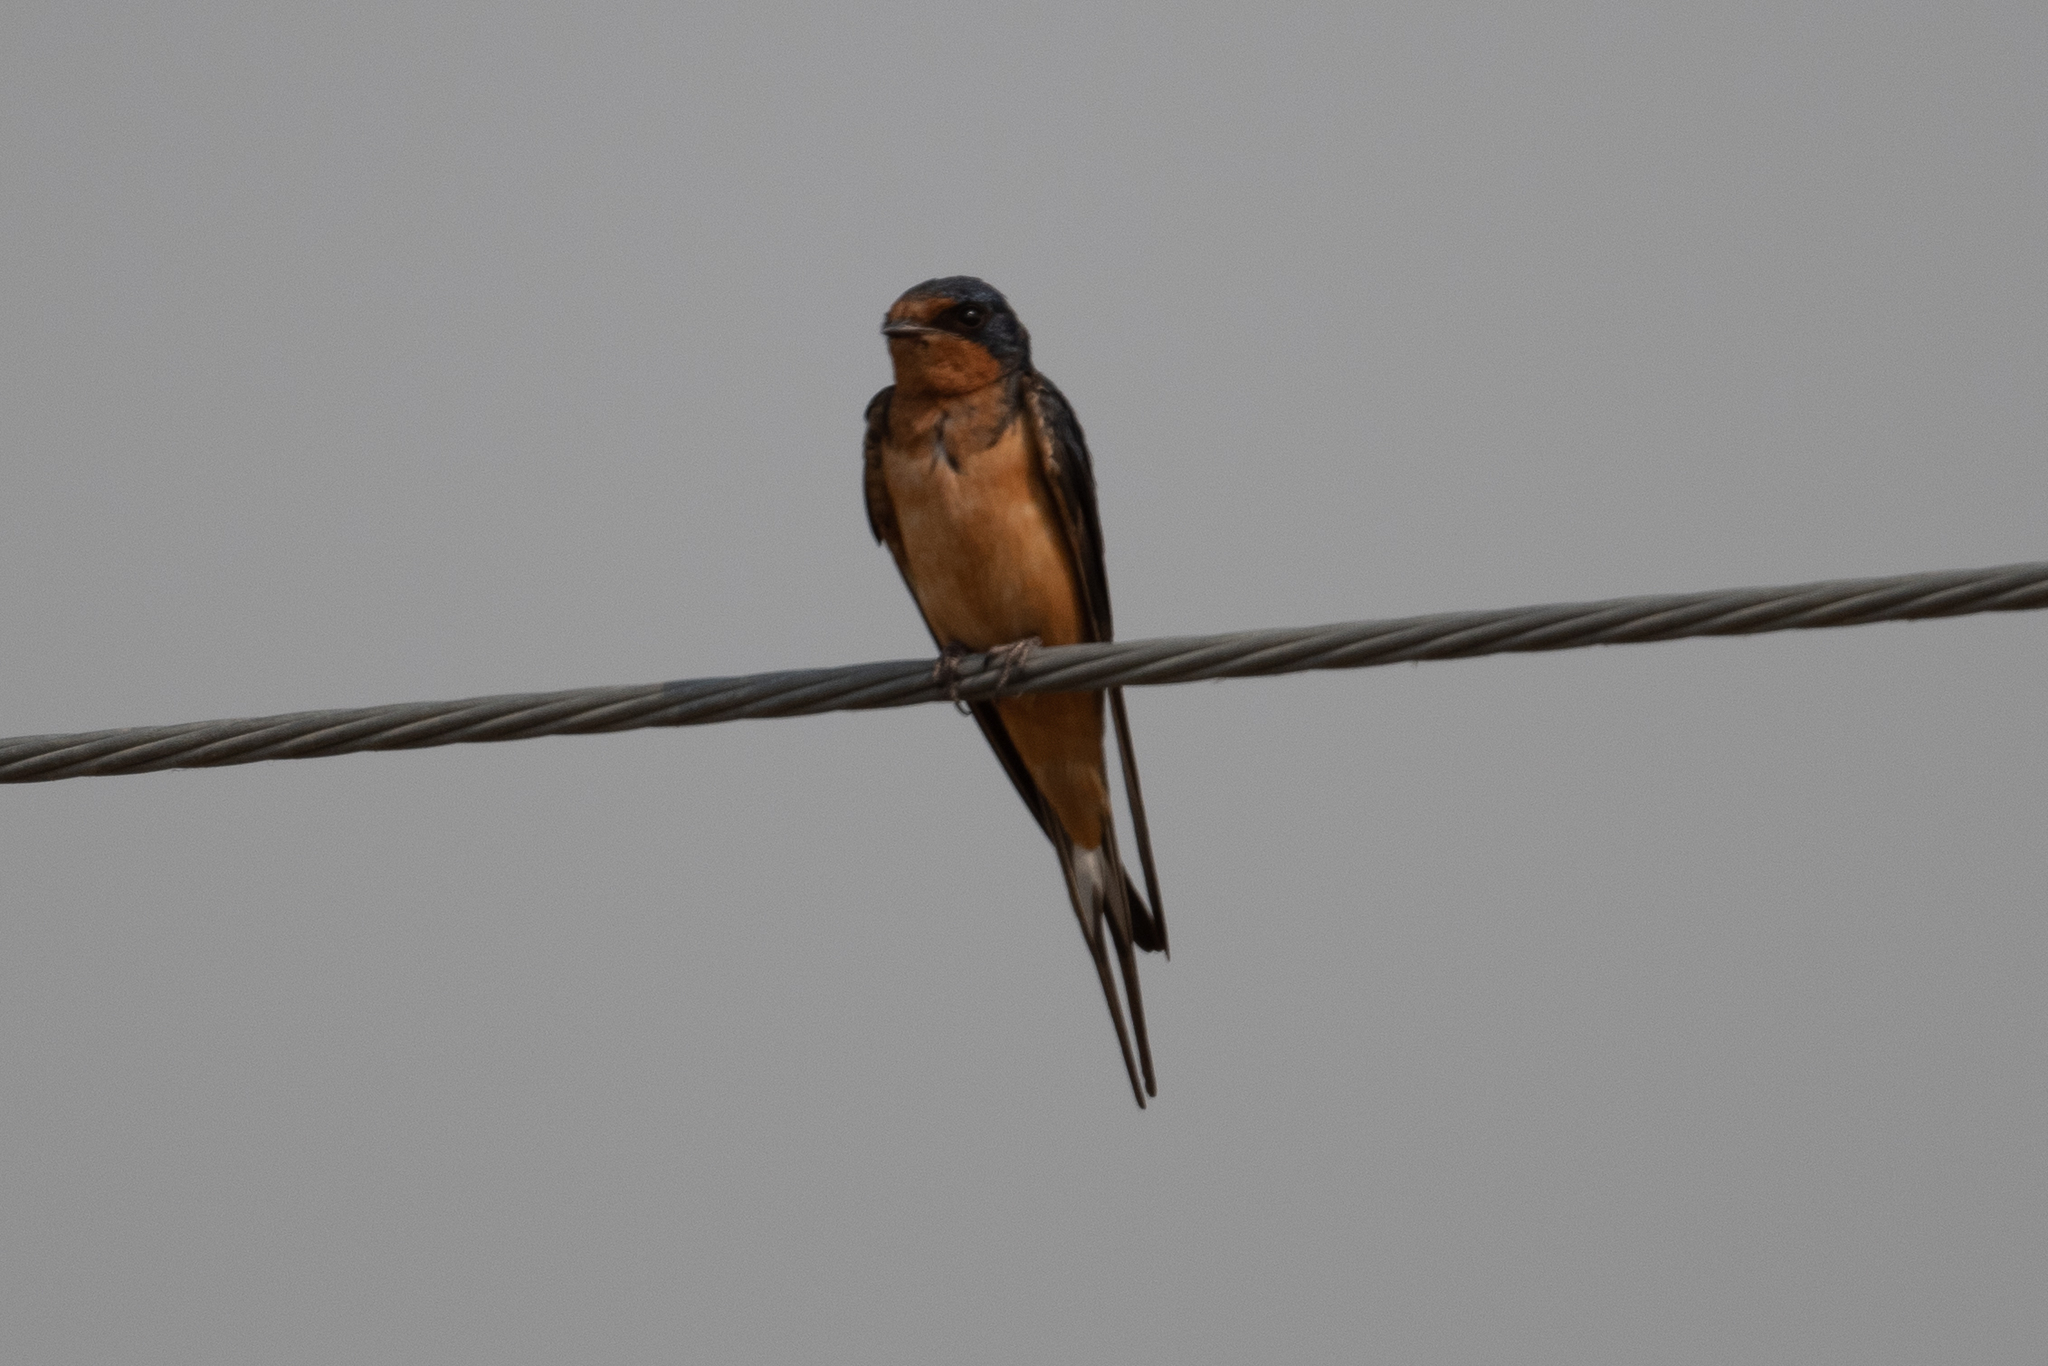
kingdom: Animalia
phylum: Chordata
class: Aves
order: Passeriformes
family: Hirundinidae
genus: Hirundo
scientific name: Hirundo rustica
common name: Barn swallow
